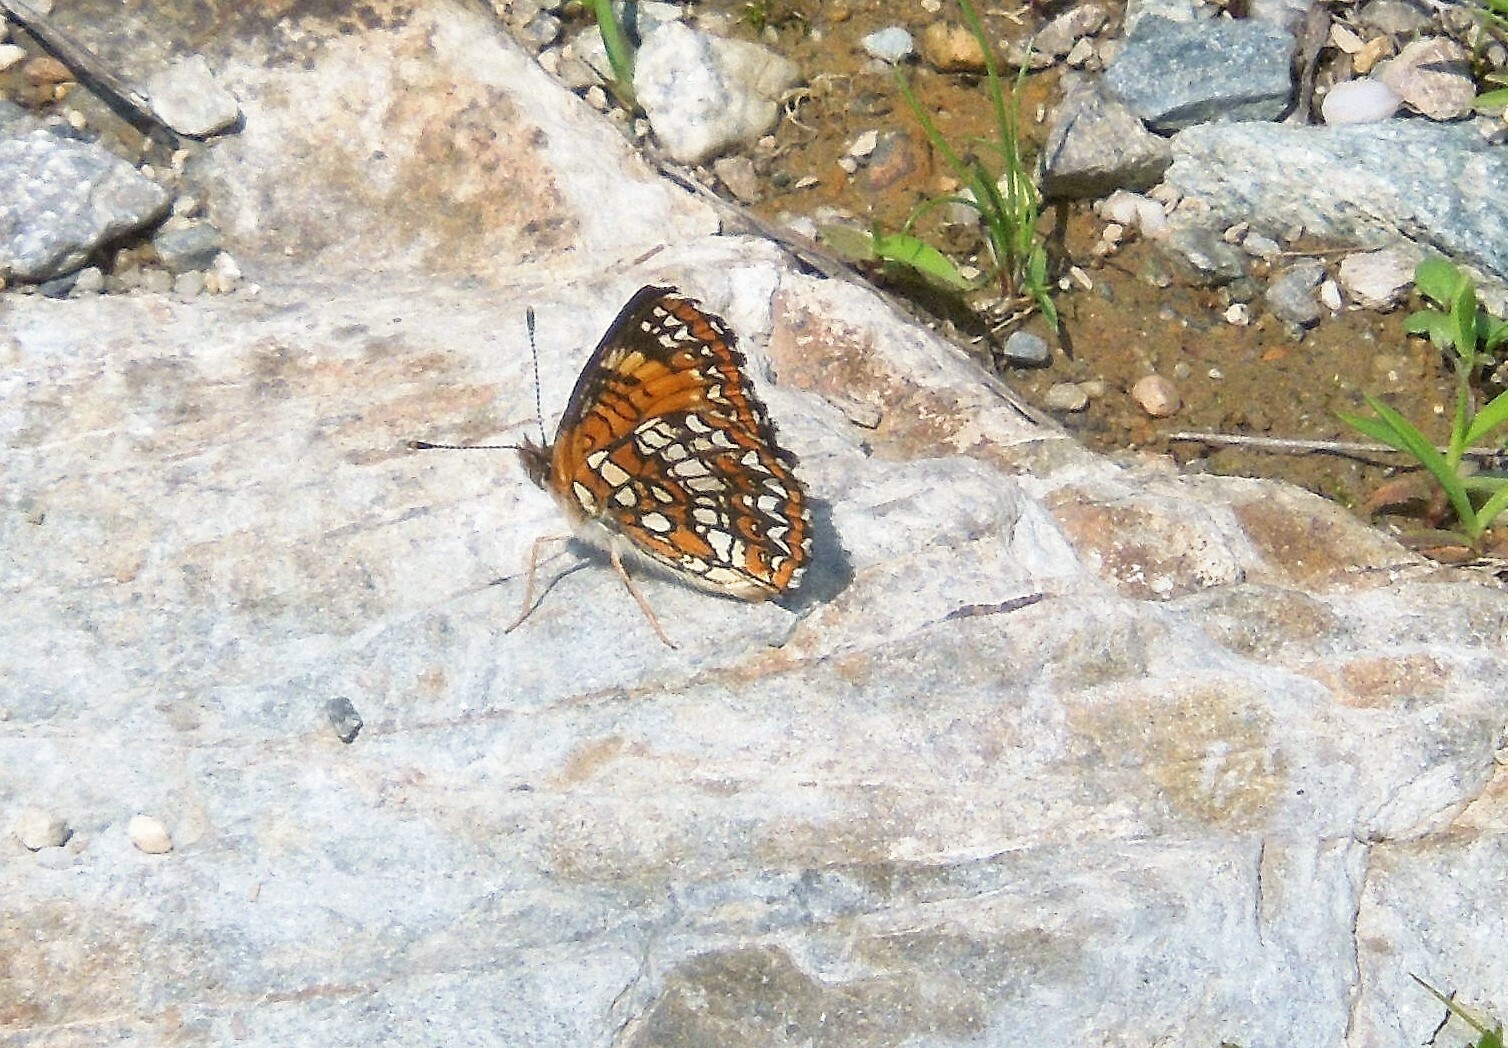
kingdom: Animalia
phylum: Arthropoda
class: Insecta
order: Lepidoptera
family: Nymphalidae
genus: Chlosyne
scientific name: Chlosyne harrisii
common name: Harris's checkerspot
